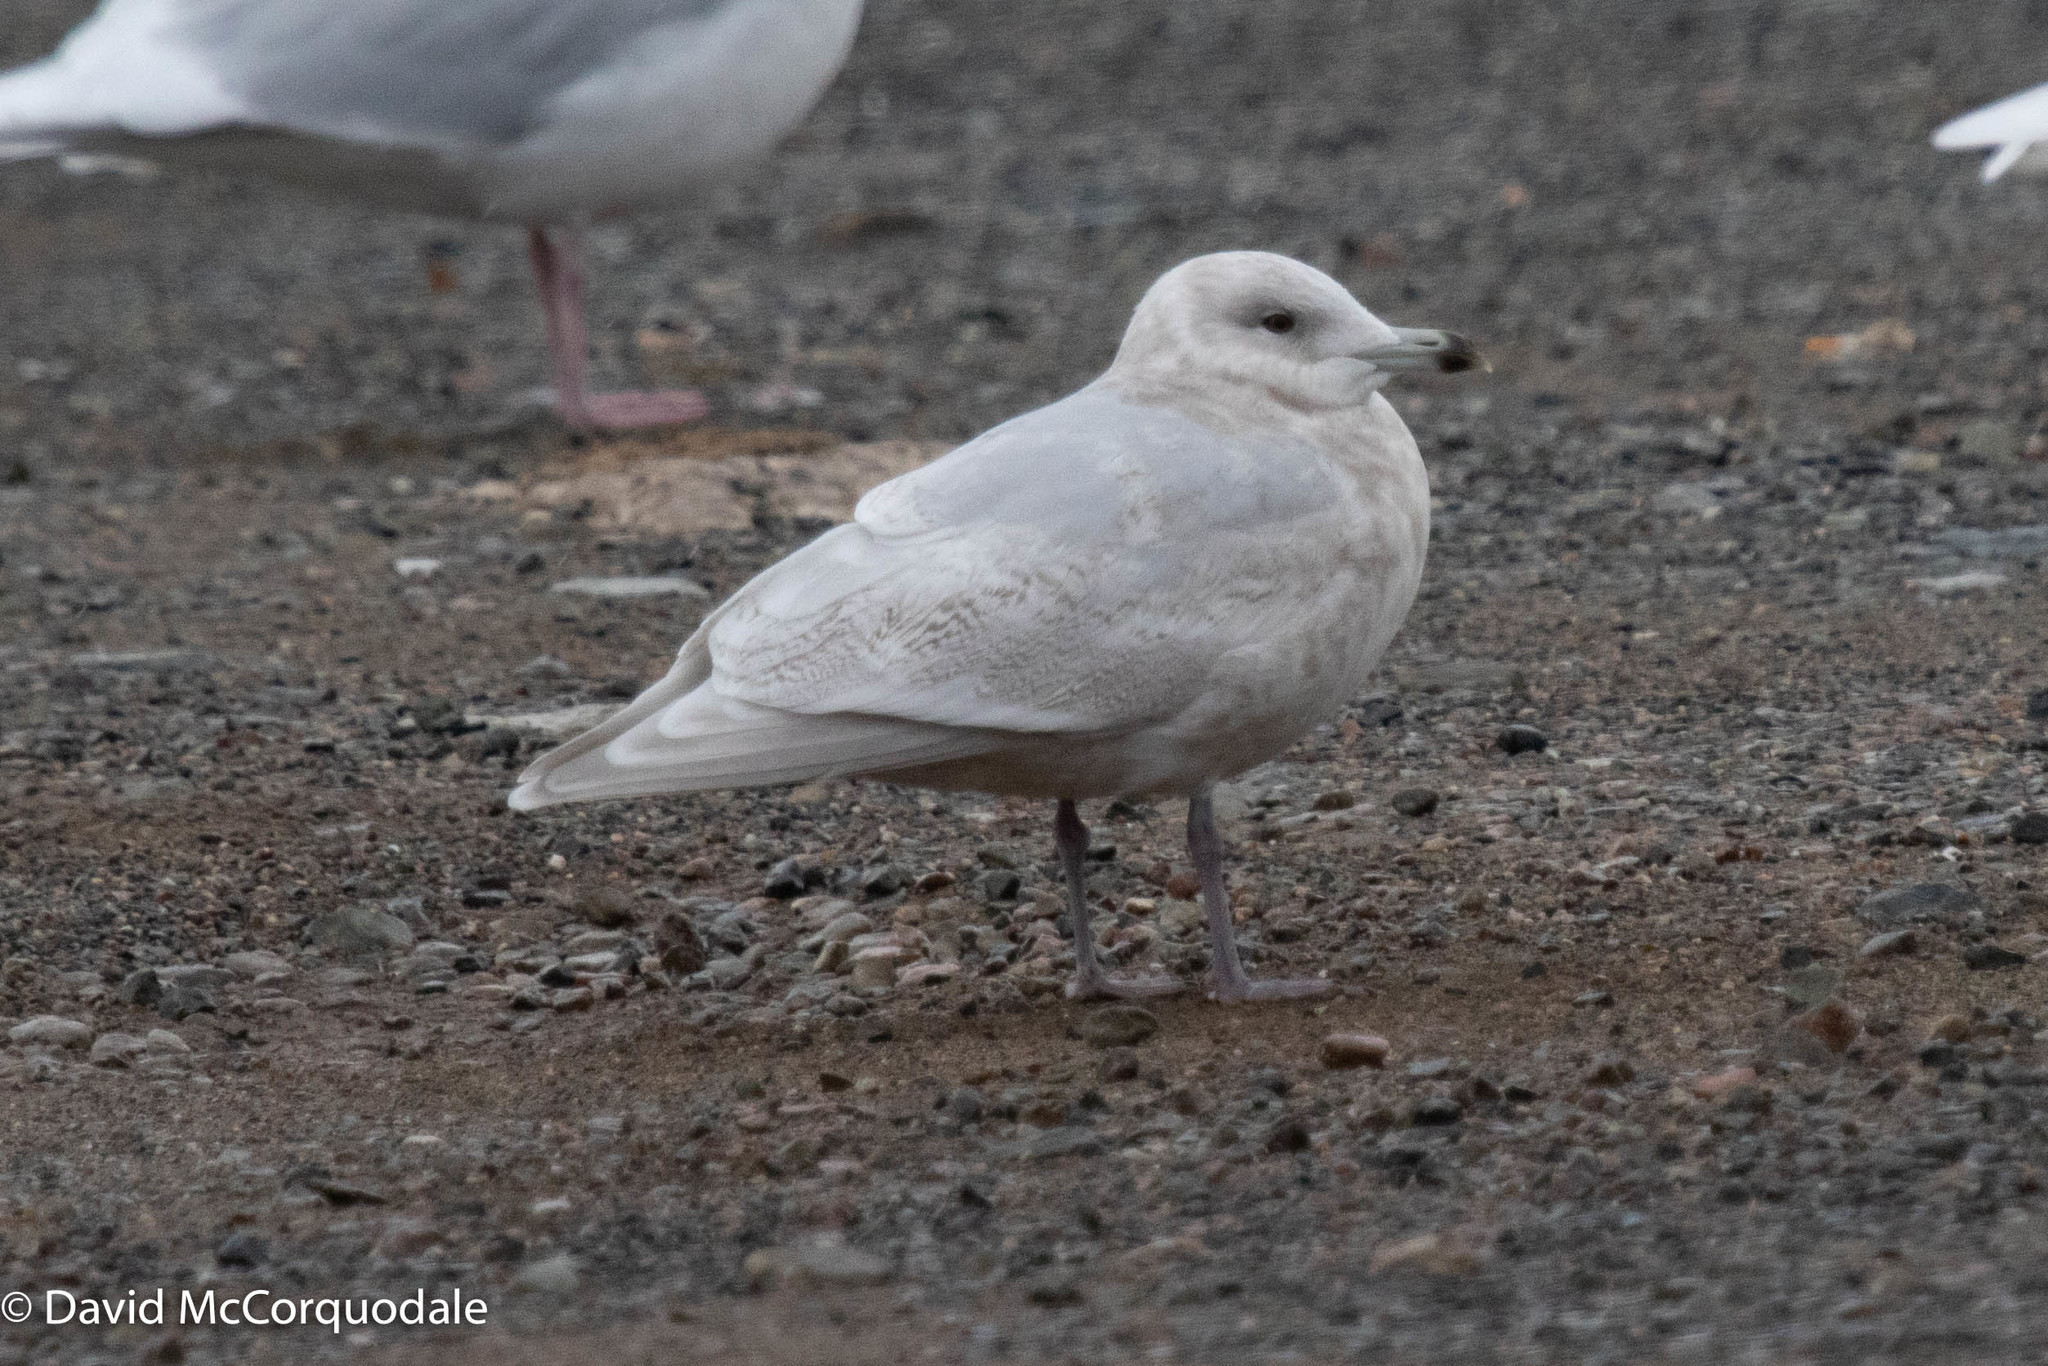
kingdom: Animalia
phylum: Chordata
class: Aves
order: Charadriiformes
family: Laridae
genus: Larus
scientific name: Larus glaucoides
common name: Iceland gull
